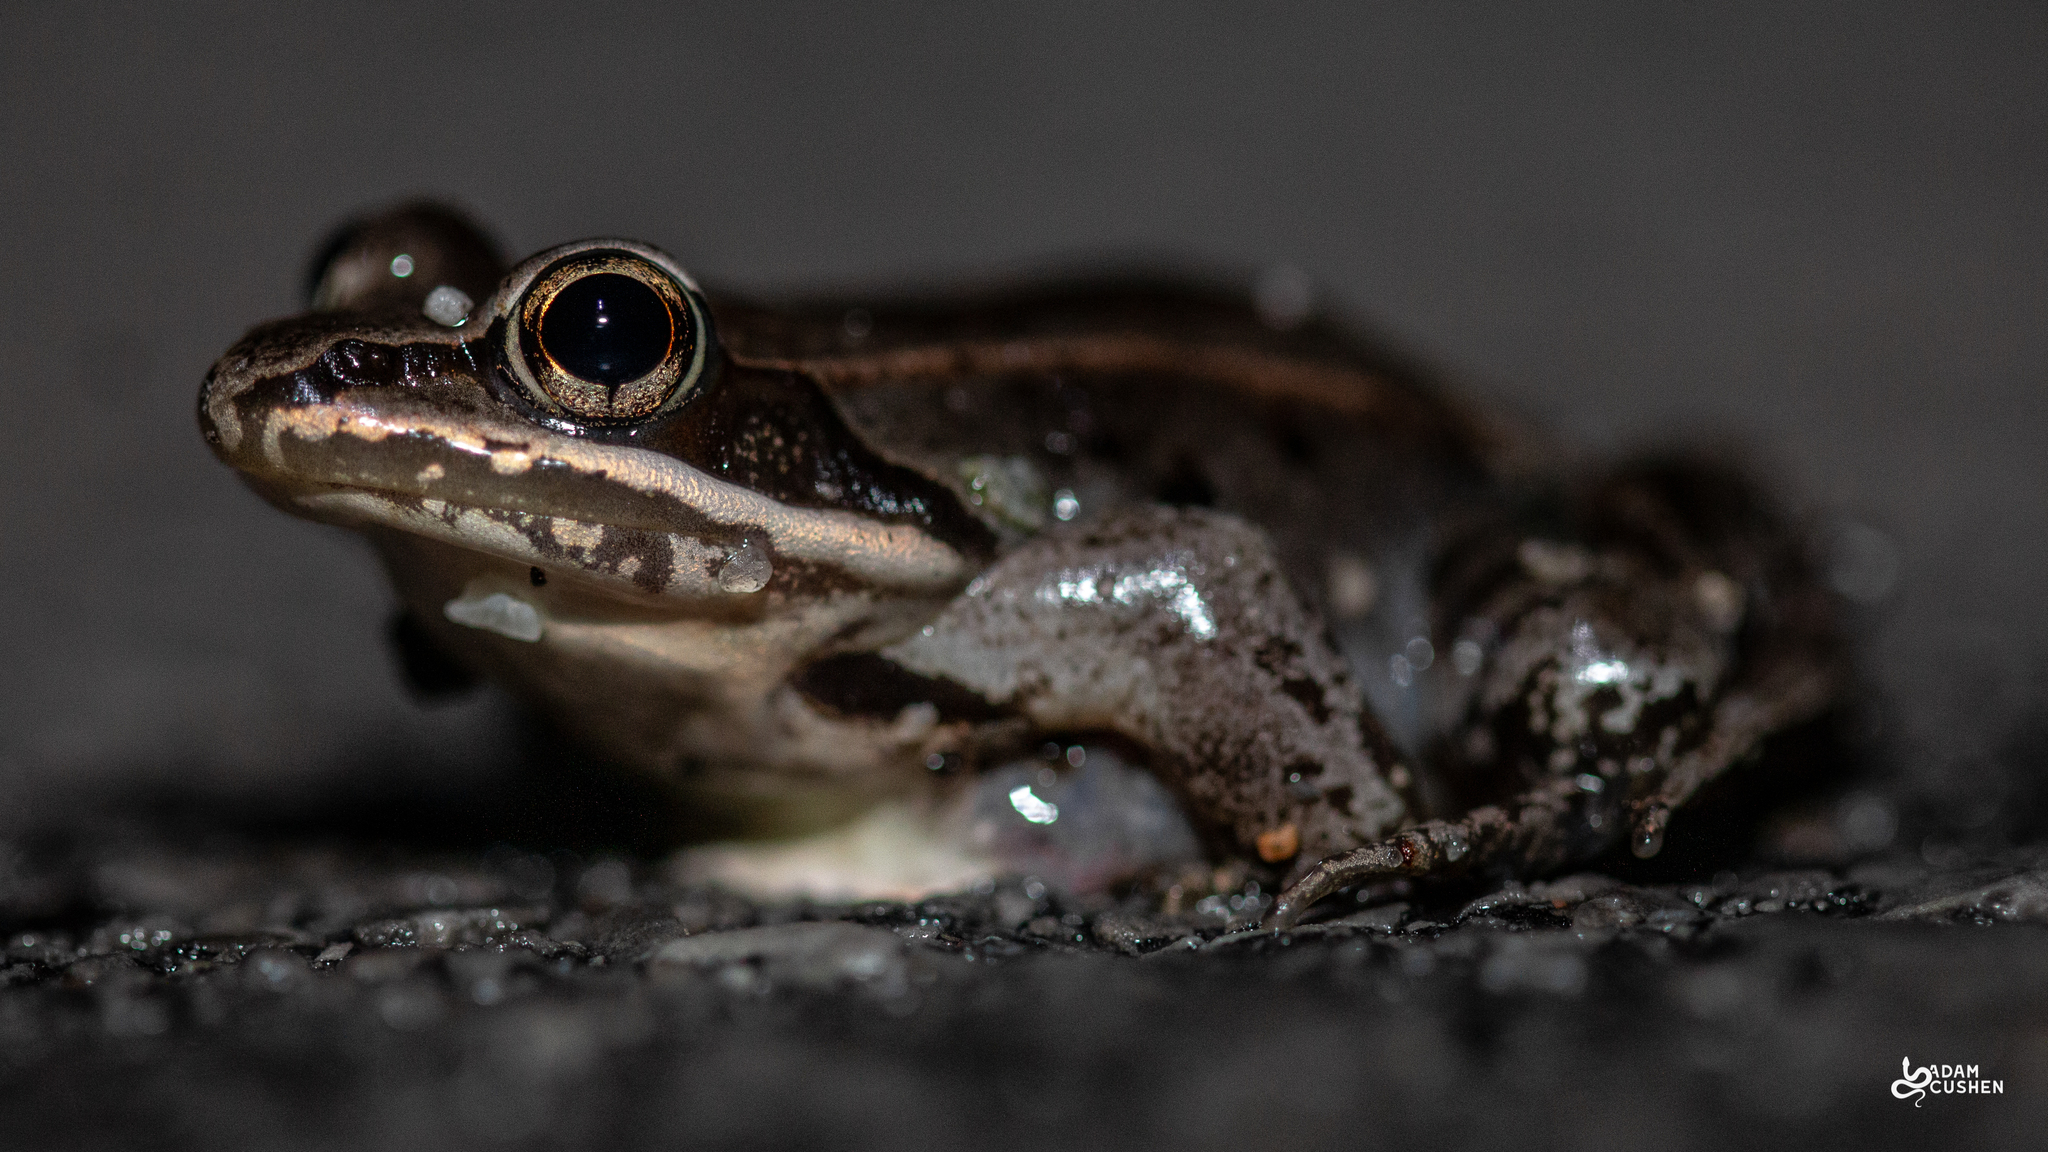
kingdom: Animalia
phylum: Chordata
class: Amphibia
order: Anura
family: Ranidae
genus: Lithobates
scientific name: Lithobates sylvaticus
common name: Wood frog
